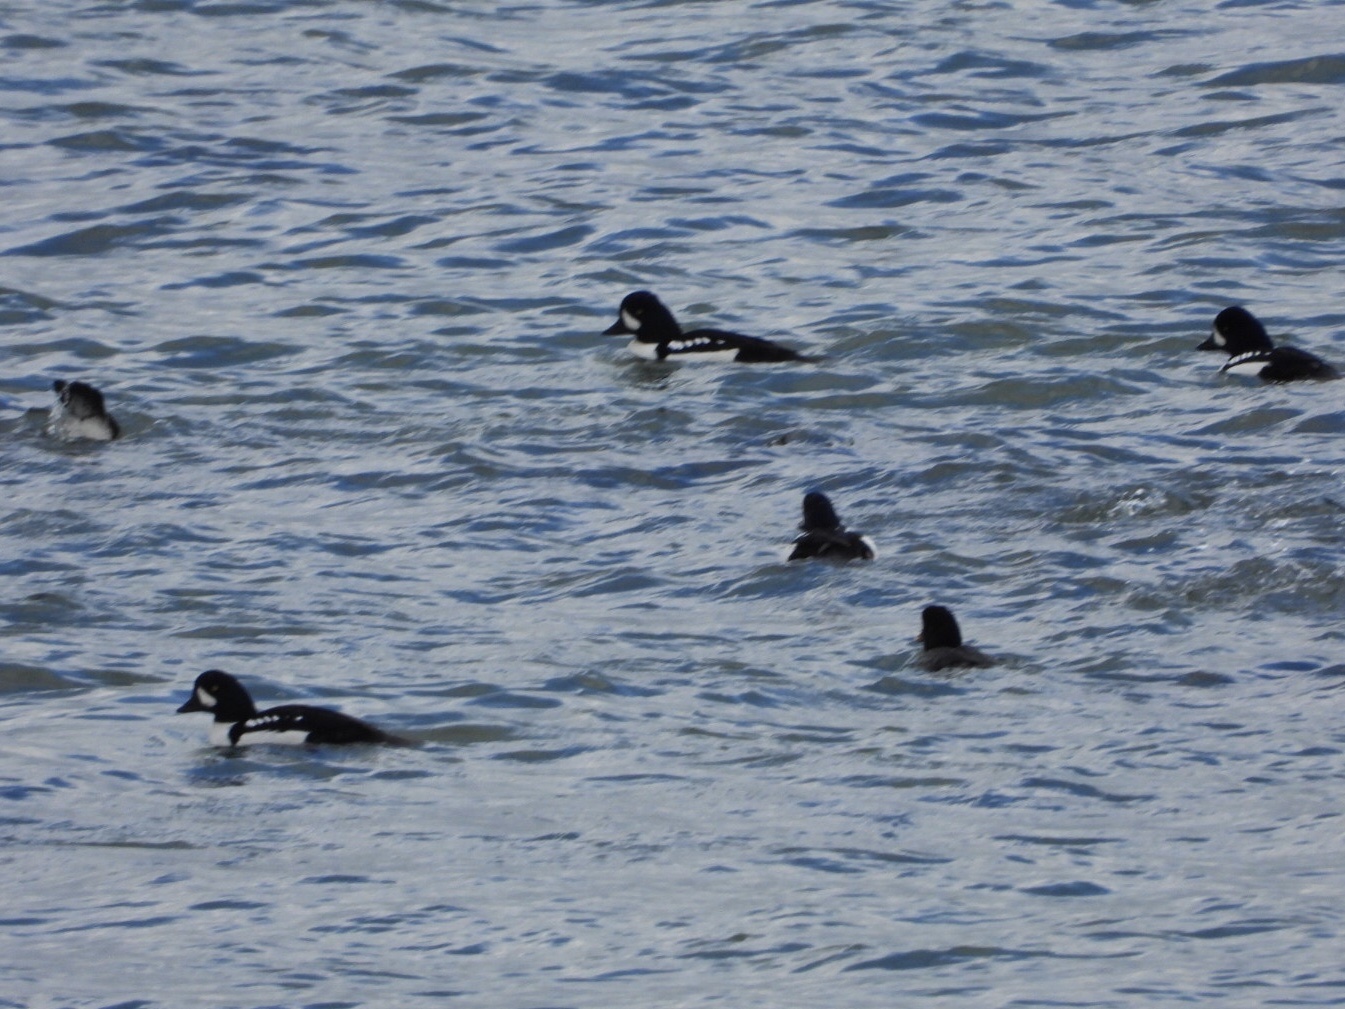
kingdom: Animalia
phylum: Chordata
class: Aves
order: Anseriformes
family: Anatidae
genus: Bucephala
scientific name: Bucephala islandica
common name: Barrow's goldeneye
